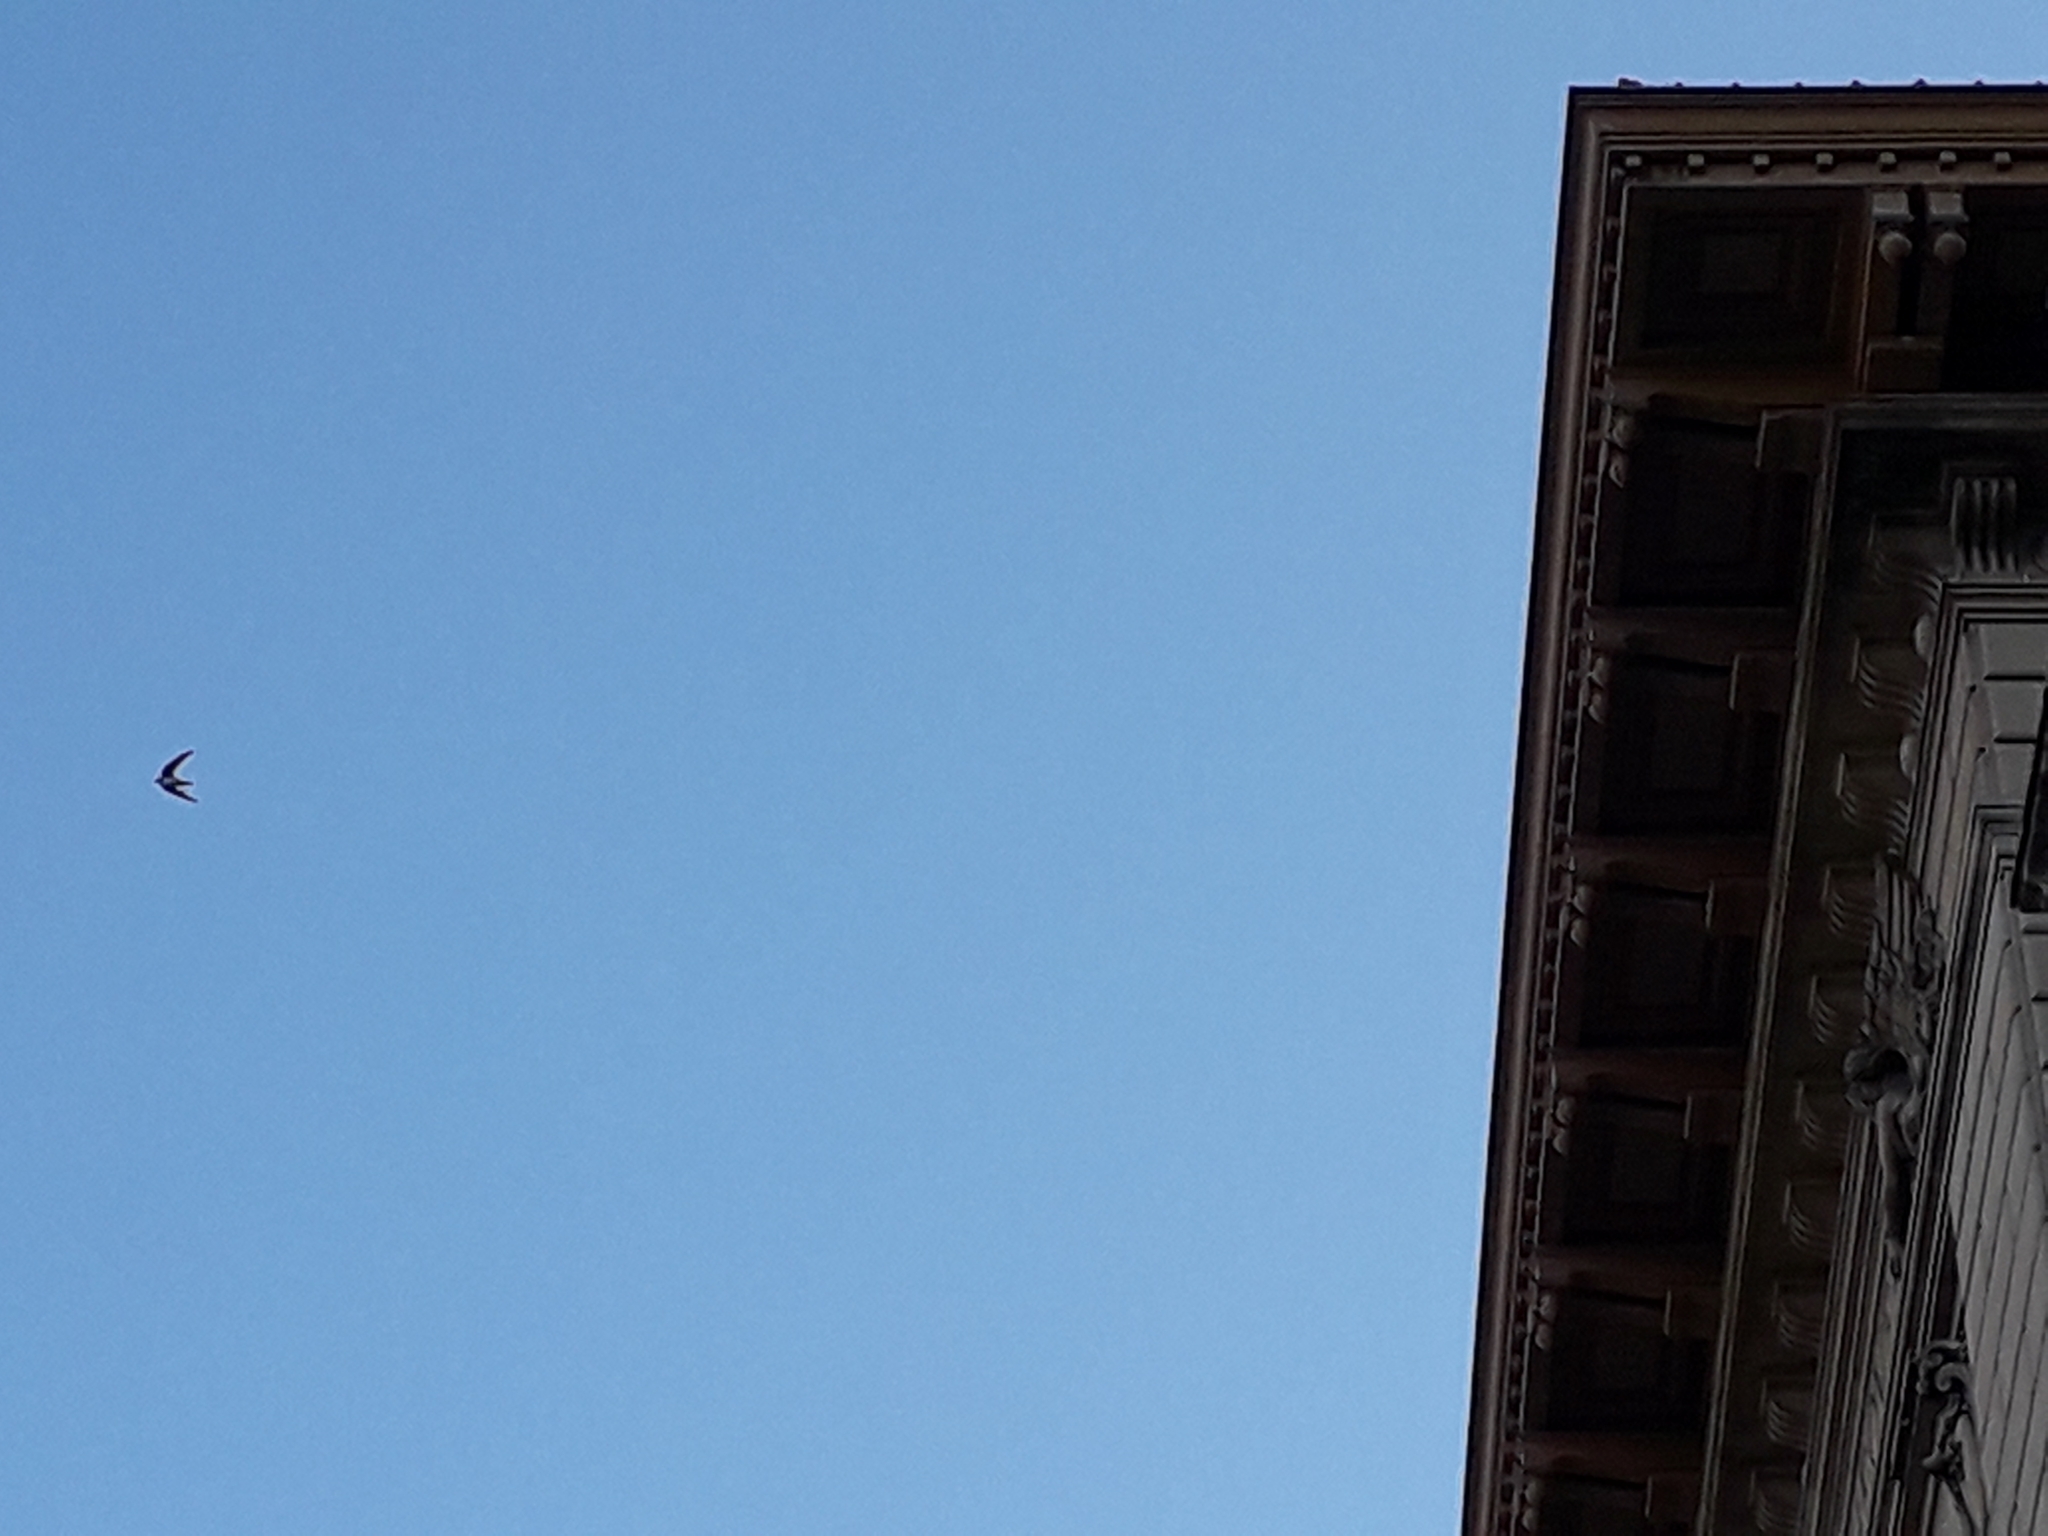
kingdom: Animalia
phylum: Chordata
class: Aves
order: Apodiformes
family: Apodidae
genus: Tachymarptis
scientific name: Tachymarptis melba
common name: Alpine swift
